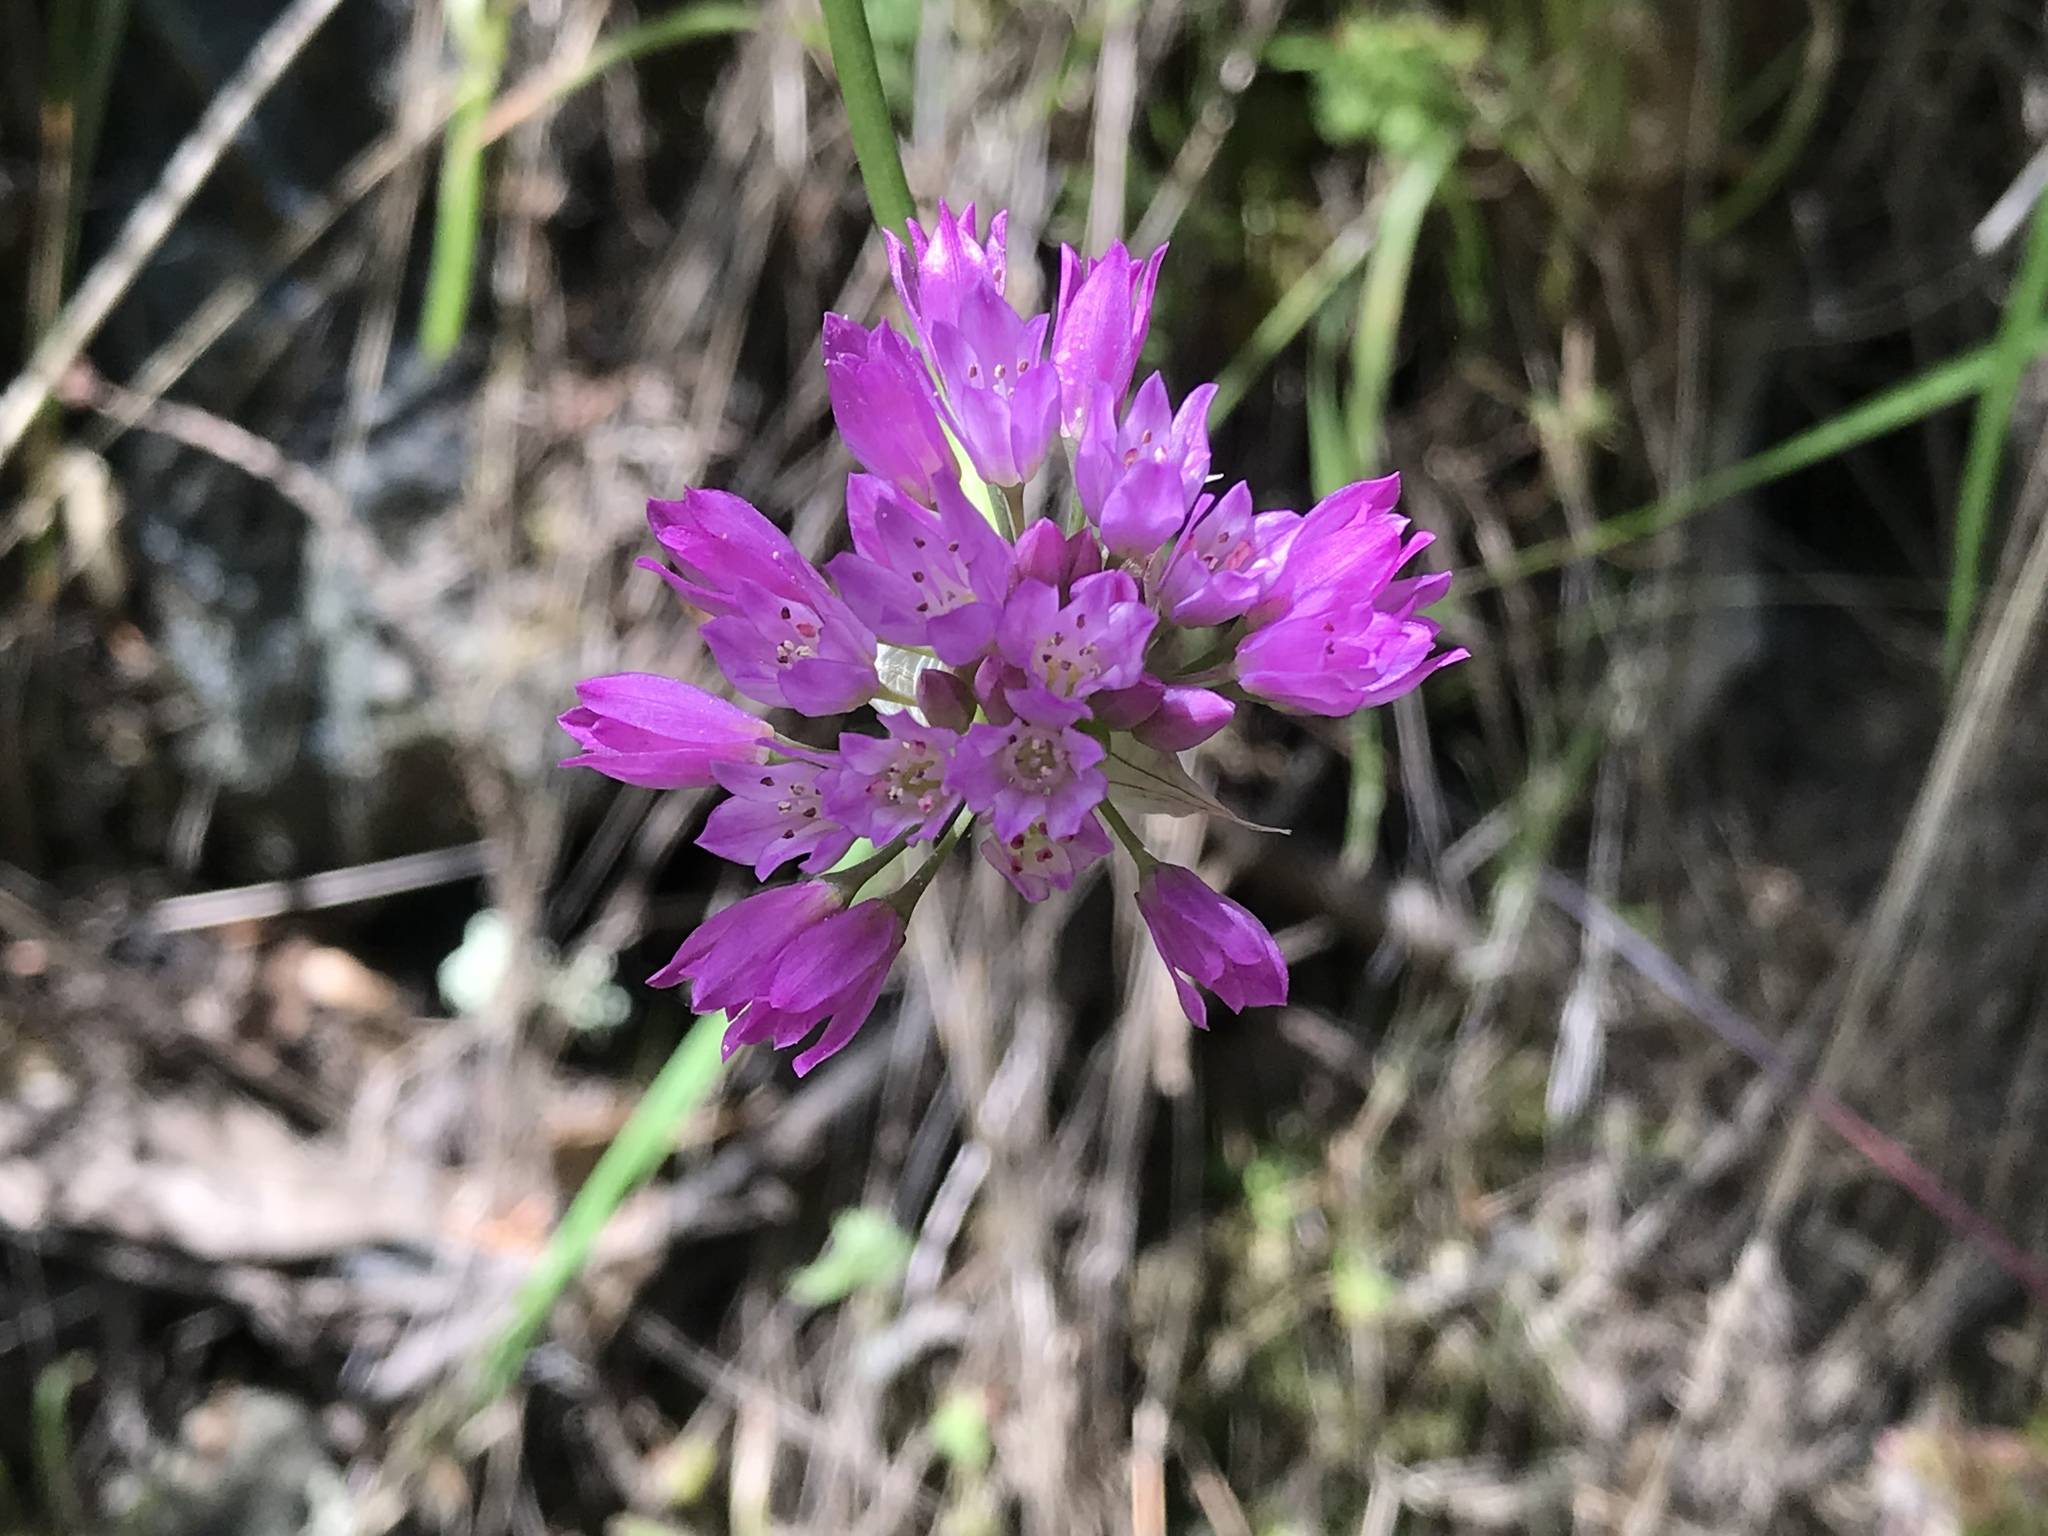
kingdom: Plantae
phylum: Tracheophyta
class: Liliopsida
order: Asparagales
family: Amaryllidaceae
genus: Allium
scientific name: Allium serra
